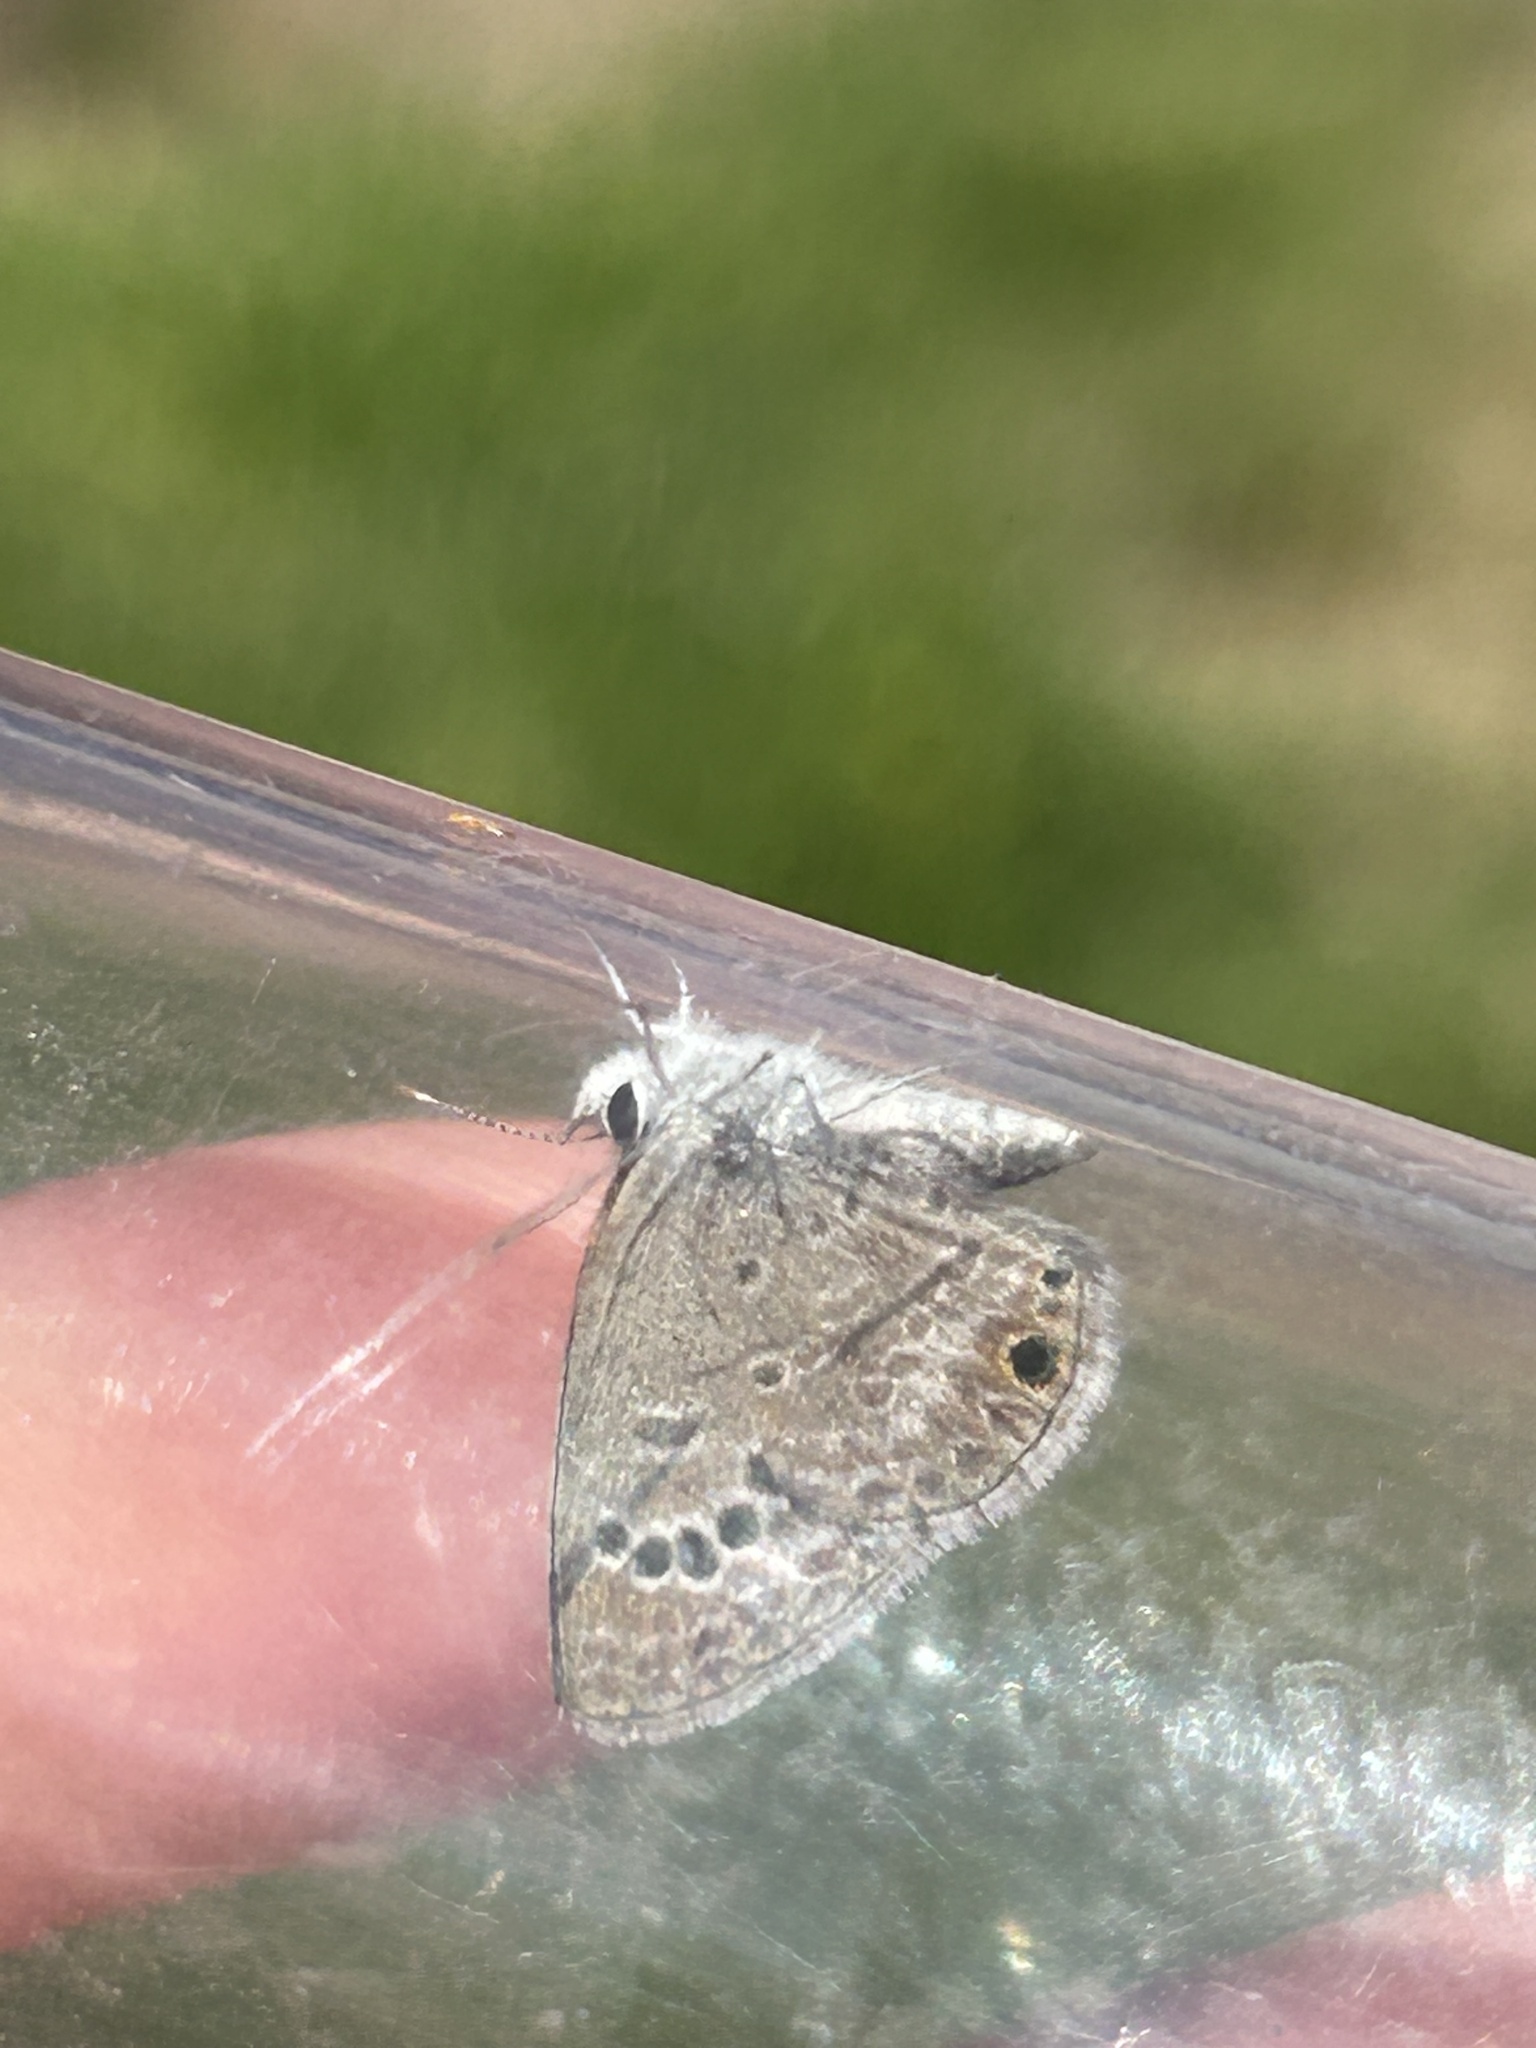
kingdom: Animalia
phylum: Arthropoda
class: Insecta
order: Lepidoptera
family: Lycaenidae
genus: Echinargus
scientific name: Echinargus isola
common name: Reakirt's blue
